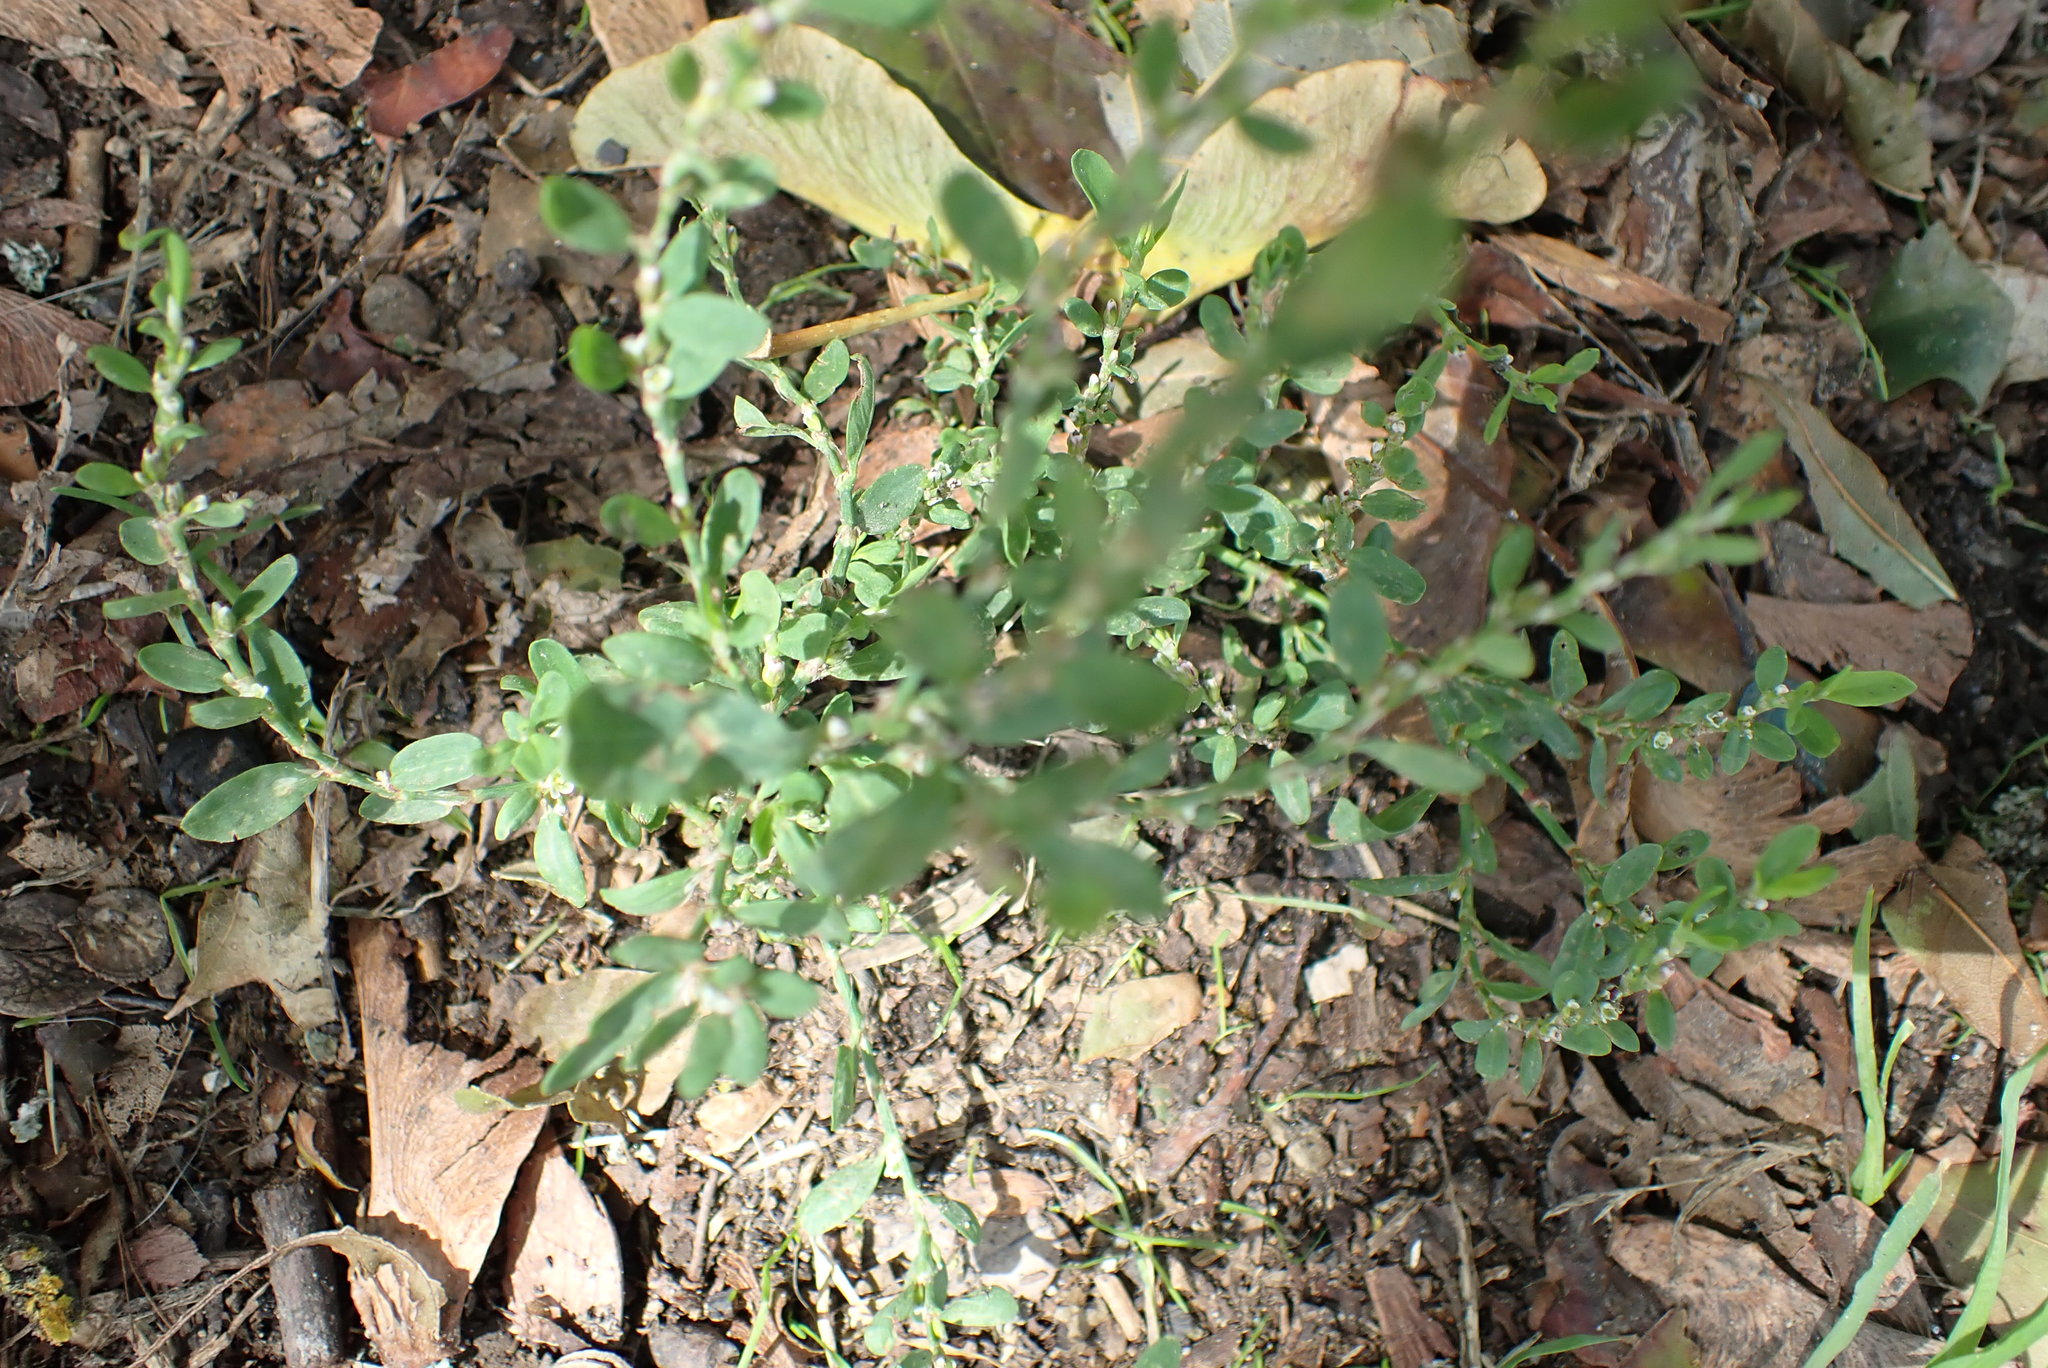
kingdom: Plantae
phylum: Tracheophyta
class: Magnoliopsida
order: Caryophyllales
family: Polygonaceae
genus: Polygonum
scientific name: Polygonum aviculare
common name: Prostrate knotweed
